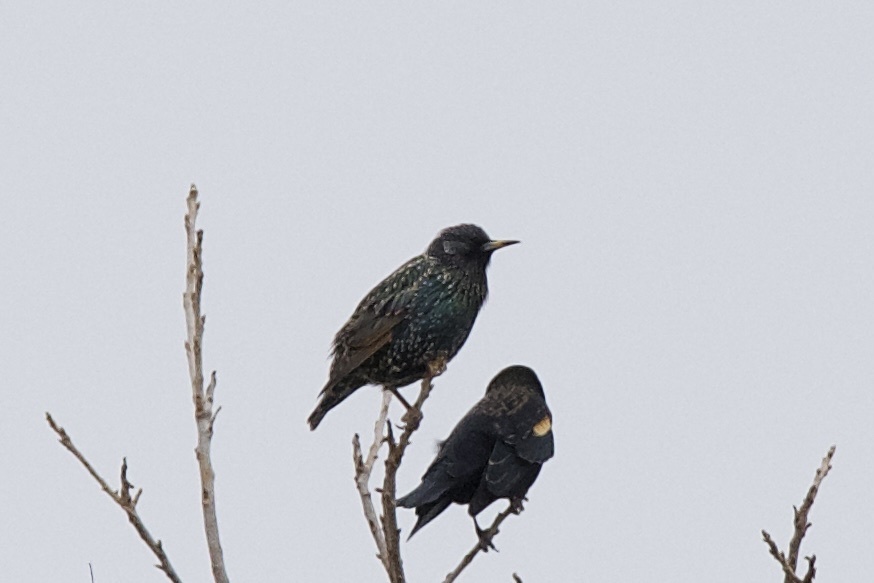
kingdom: Animalia
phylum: Chordata
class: Aves
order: Passeriformes
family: Sturnidae
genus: Sturnus
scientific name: Sturnus vulgaris
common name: Common starling
